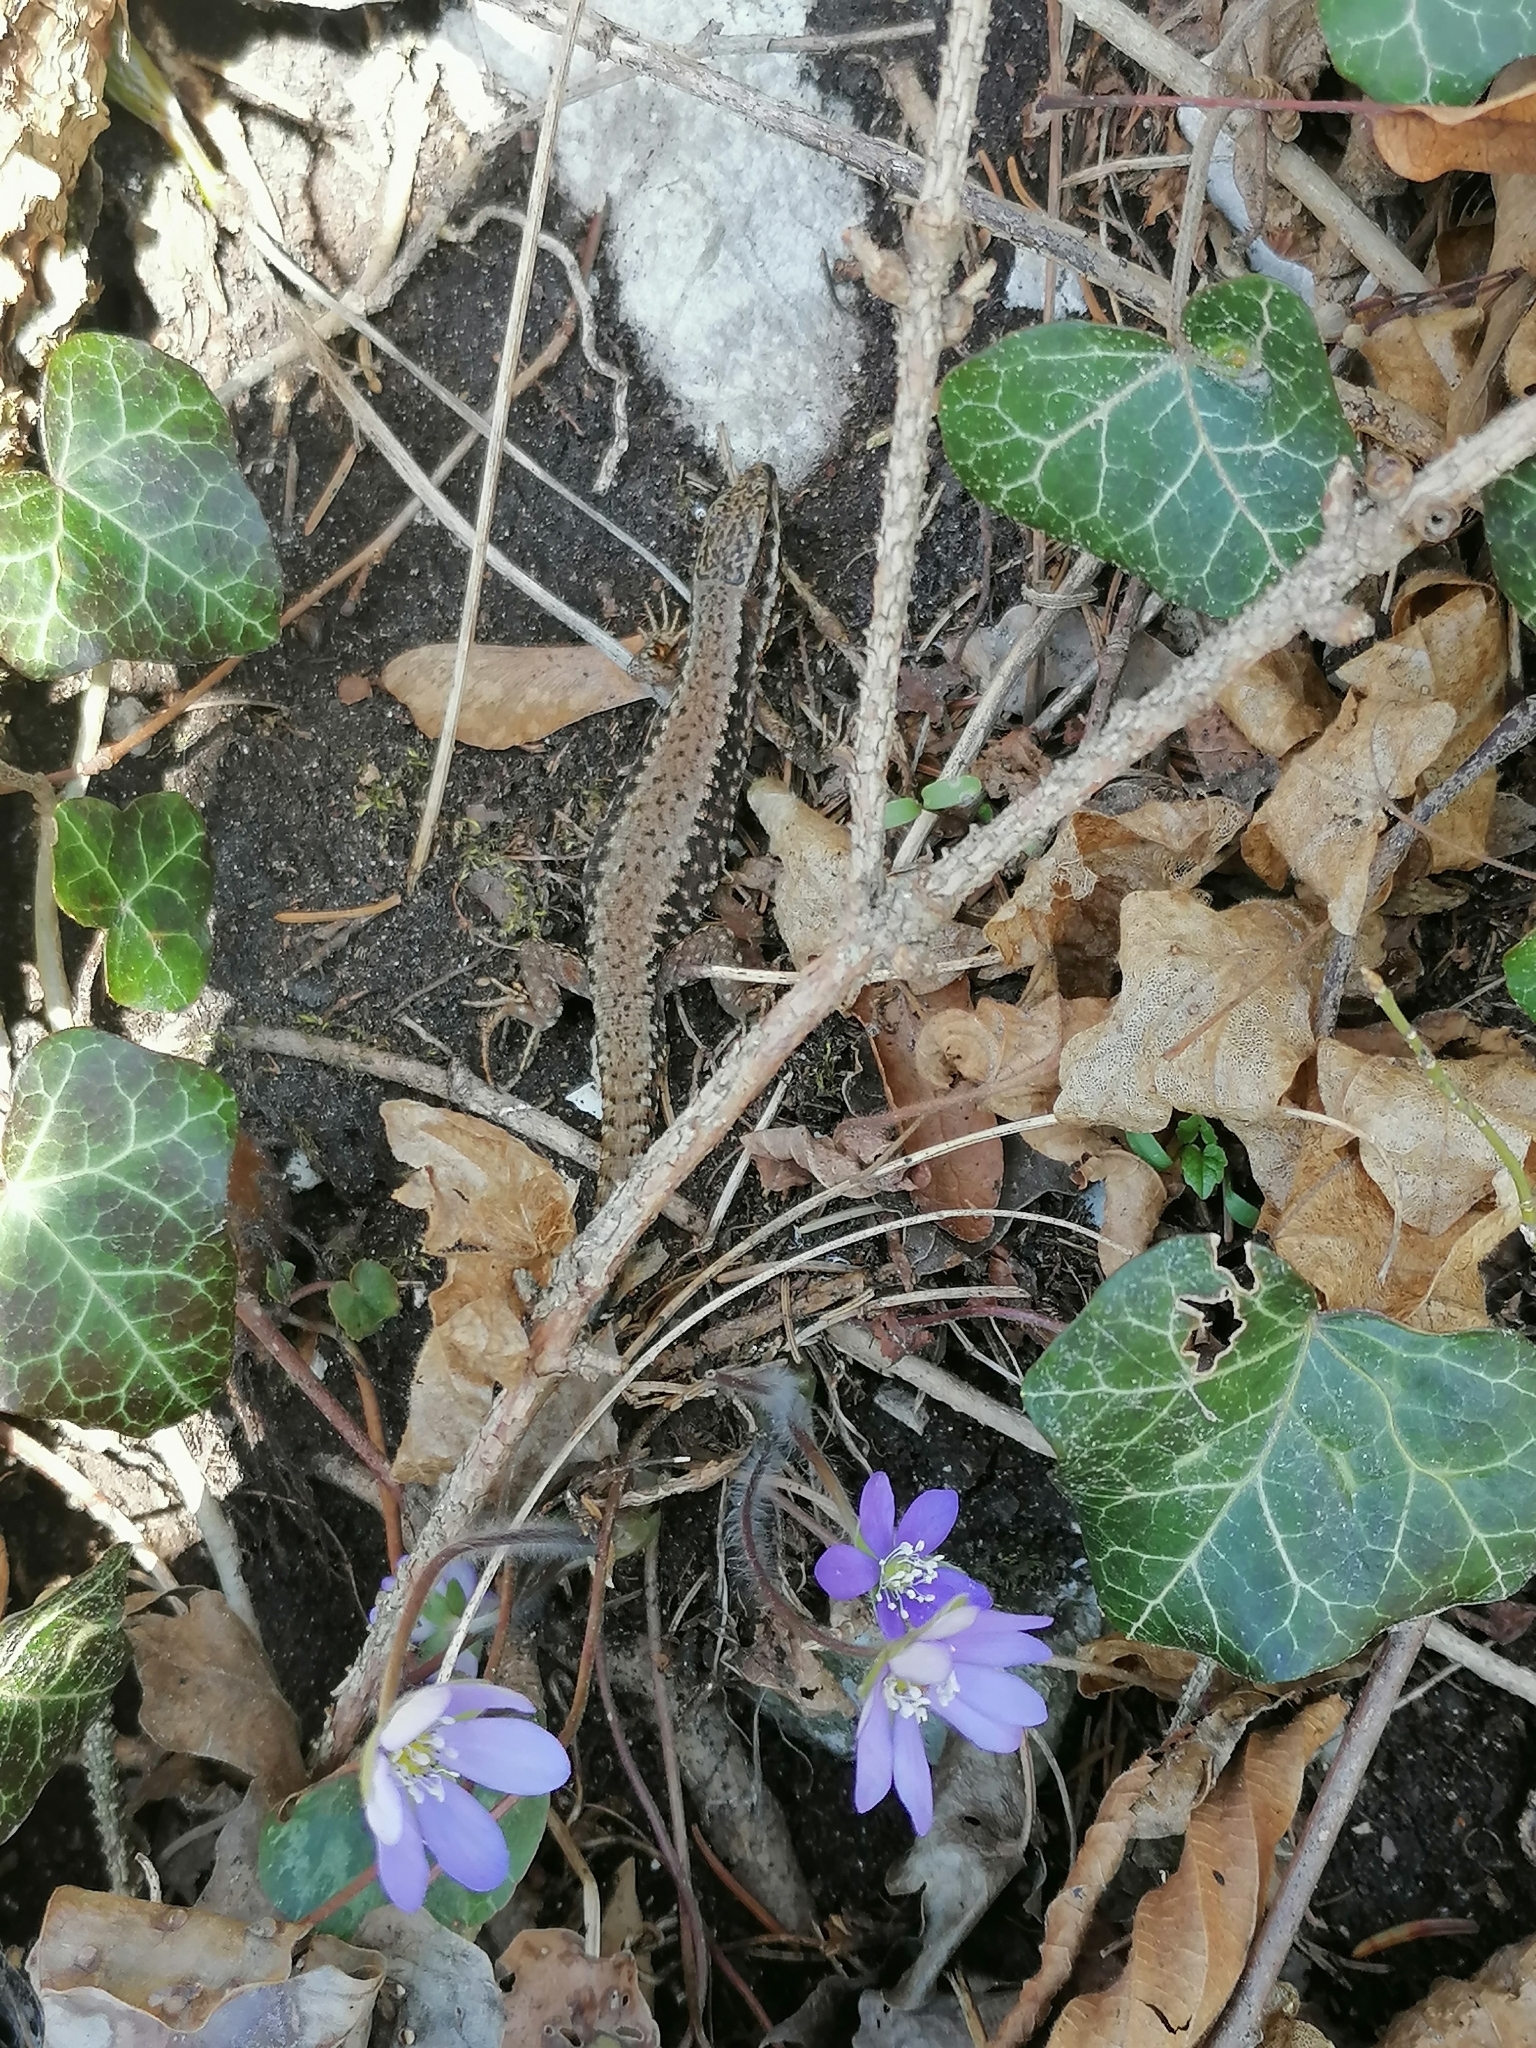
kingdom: Animalia
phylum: Chordata
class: Squamata
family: Lacertidae
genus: Podarcis
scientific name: Podarcis muralis
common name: Common wall lizard
